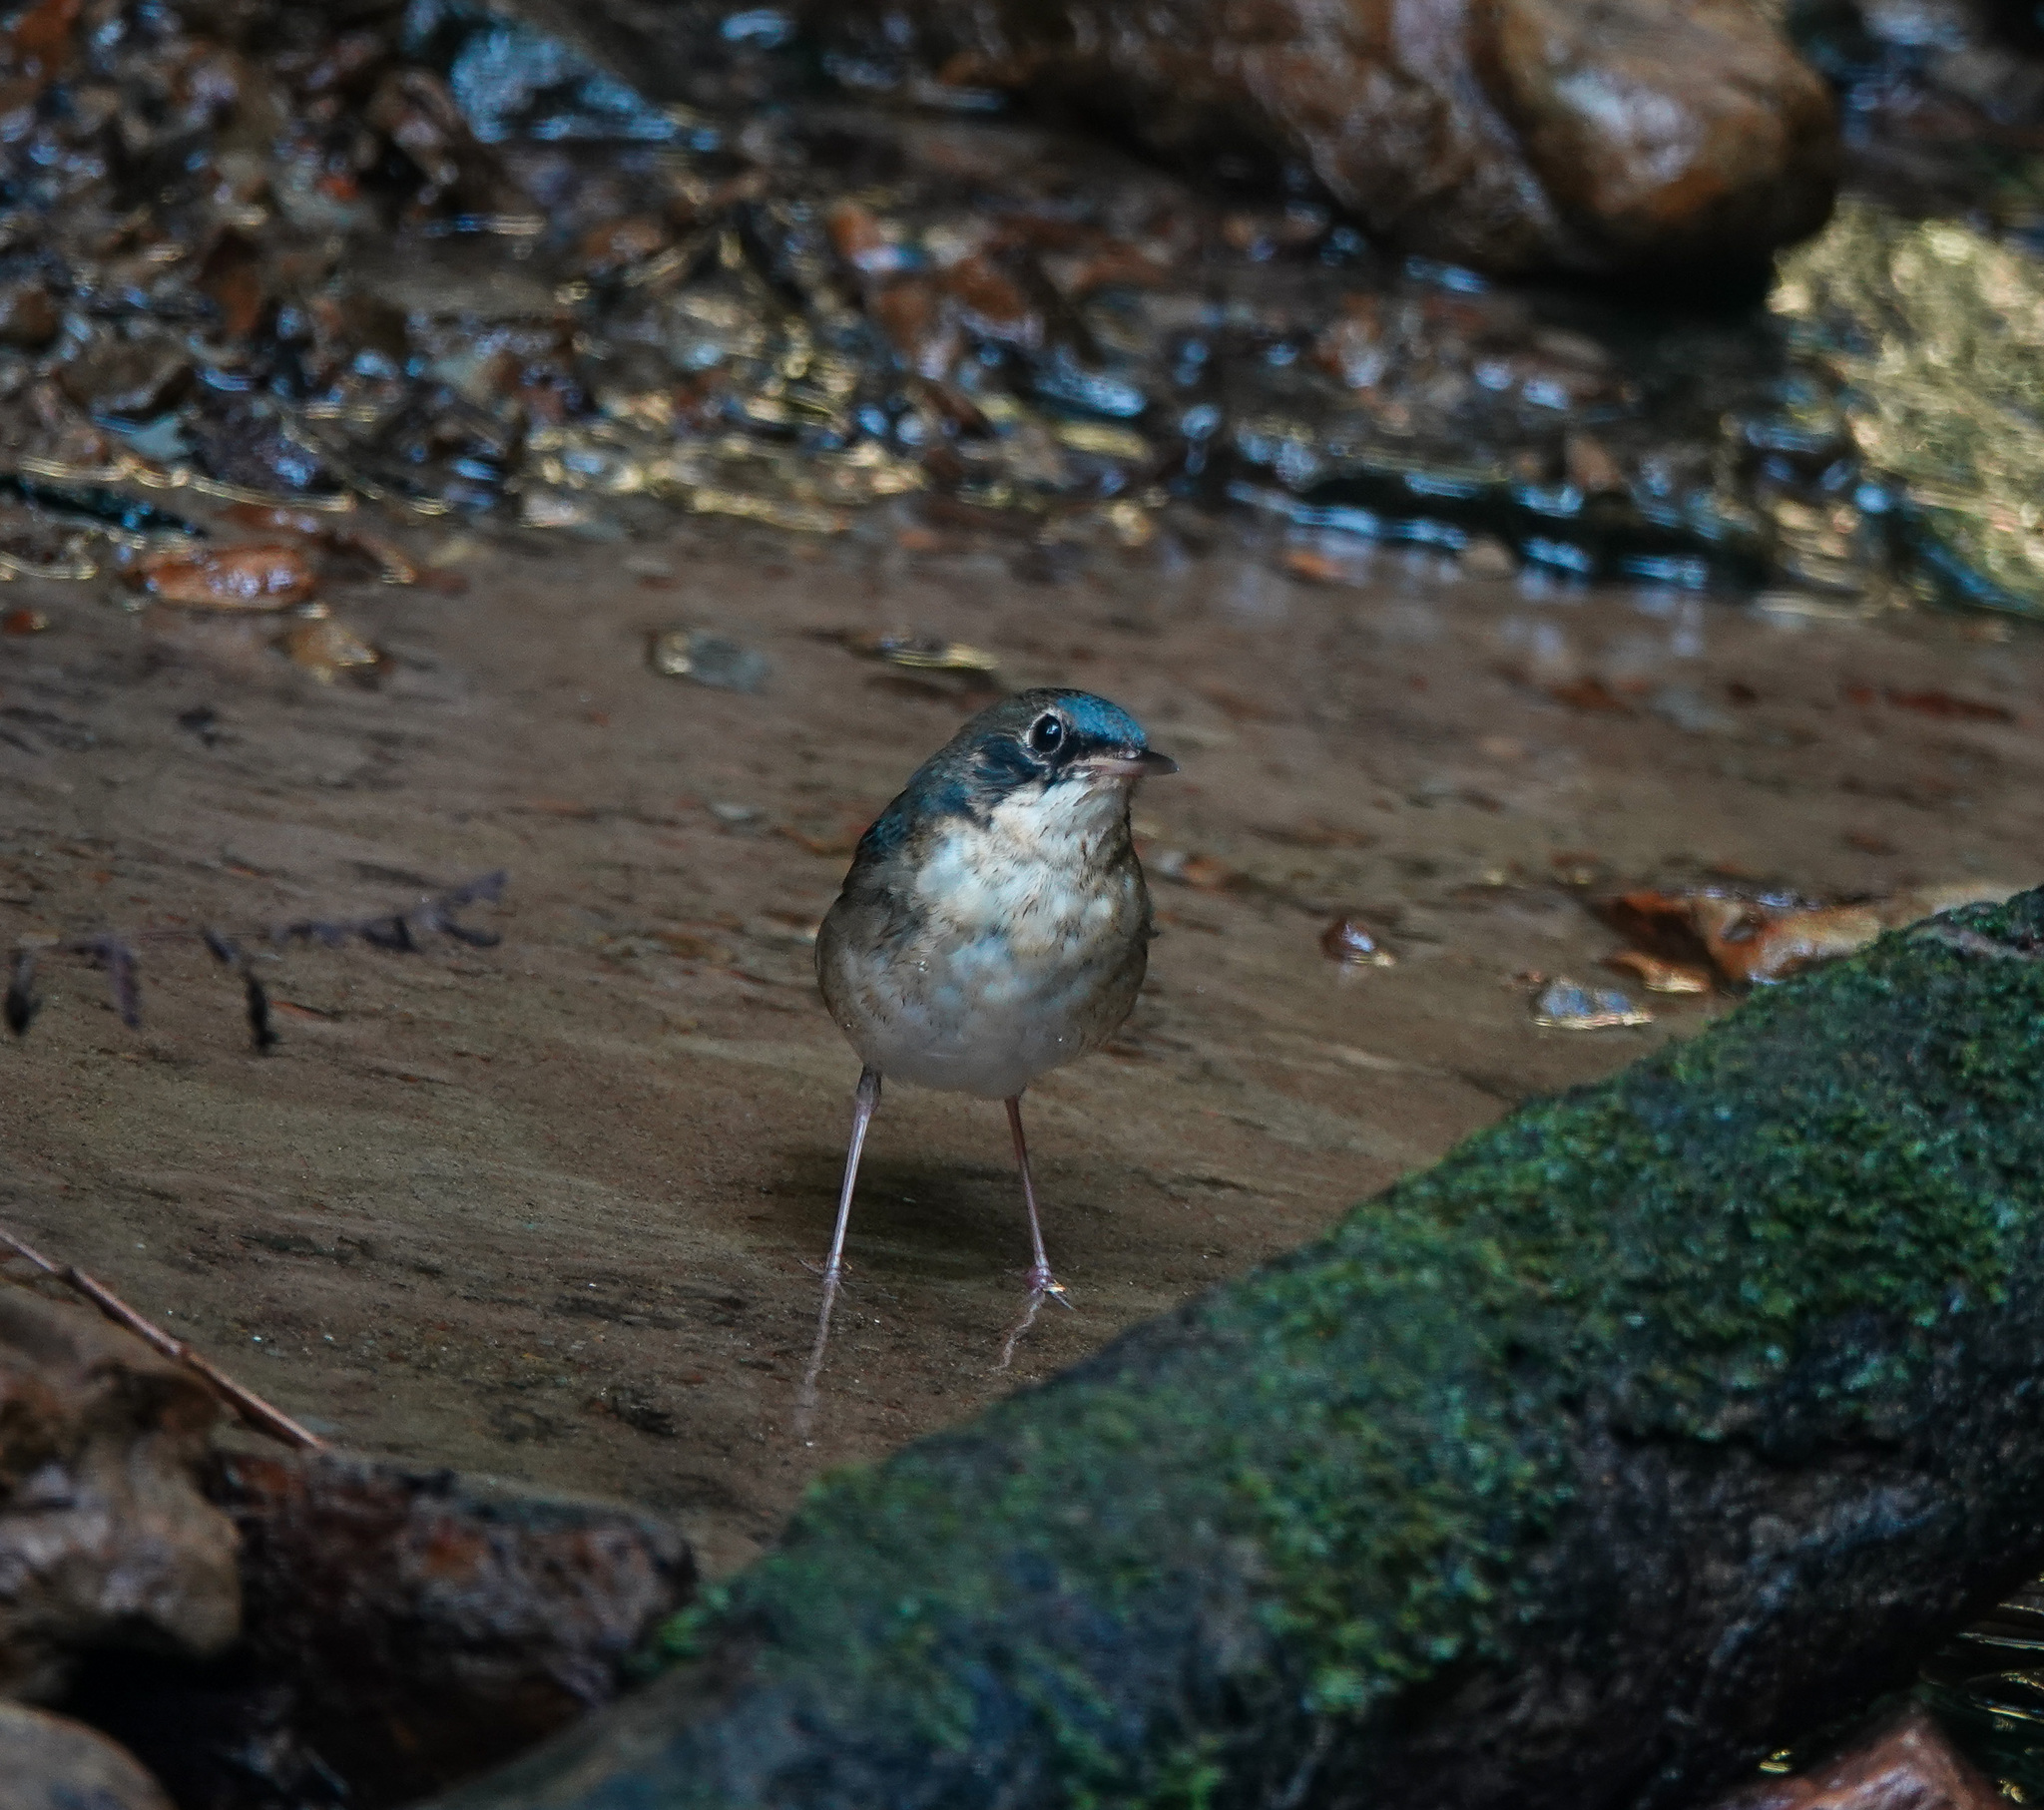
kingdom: Animalia
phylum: Chordata
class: Aves
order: Passeriformes
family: Muscicapidae
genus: Luscinia
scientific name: Luscinia cyane
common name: Siberian blue robin
